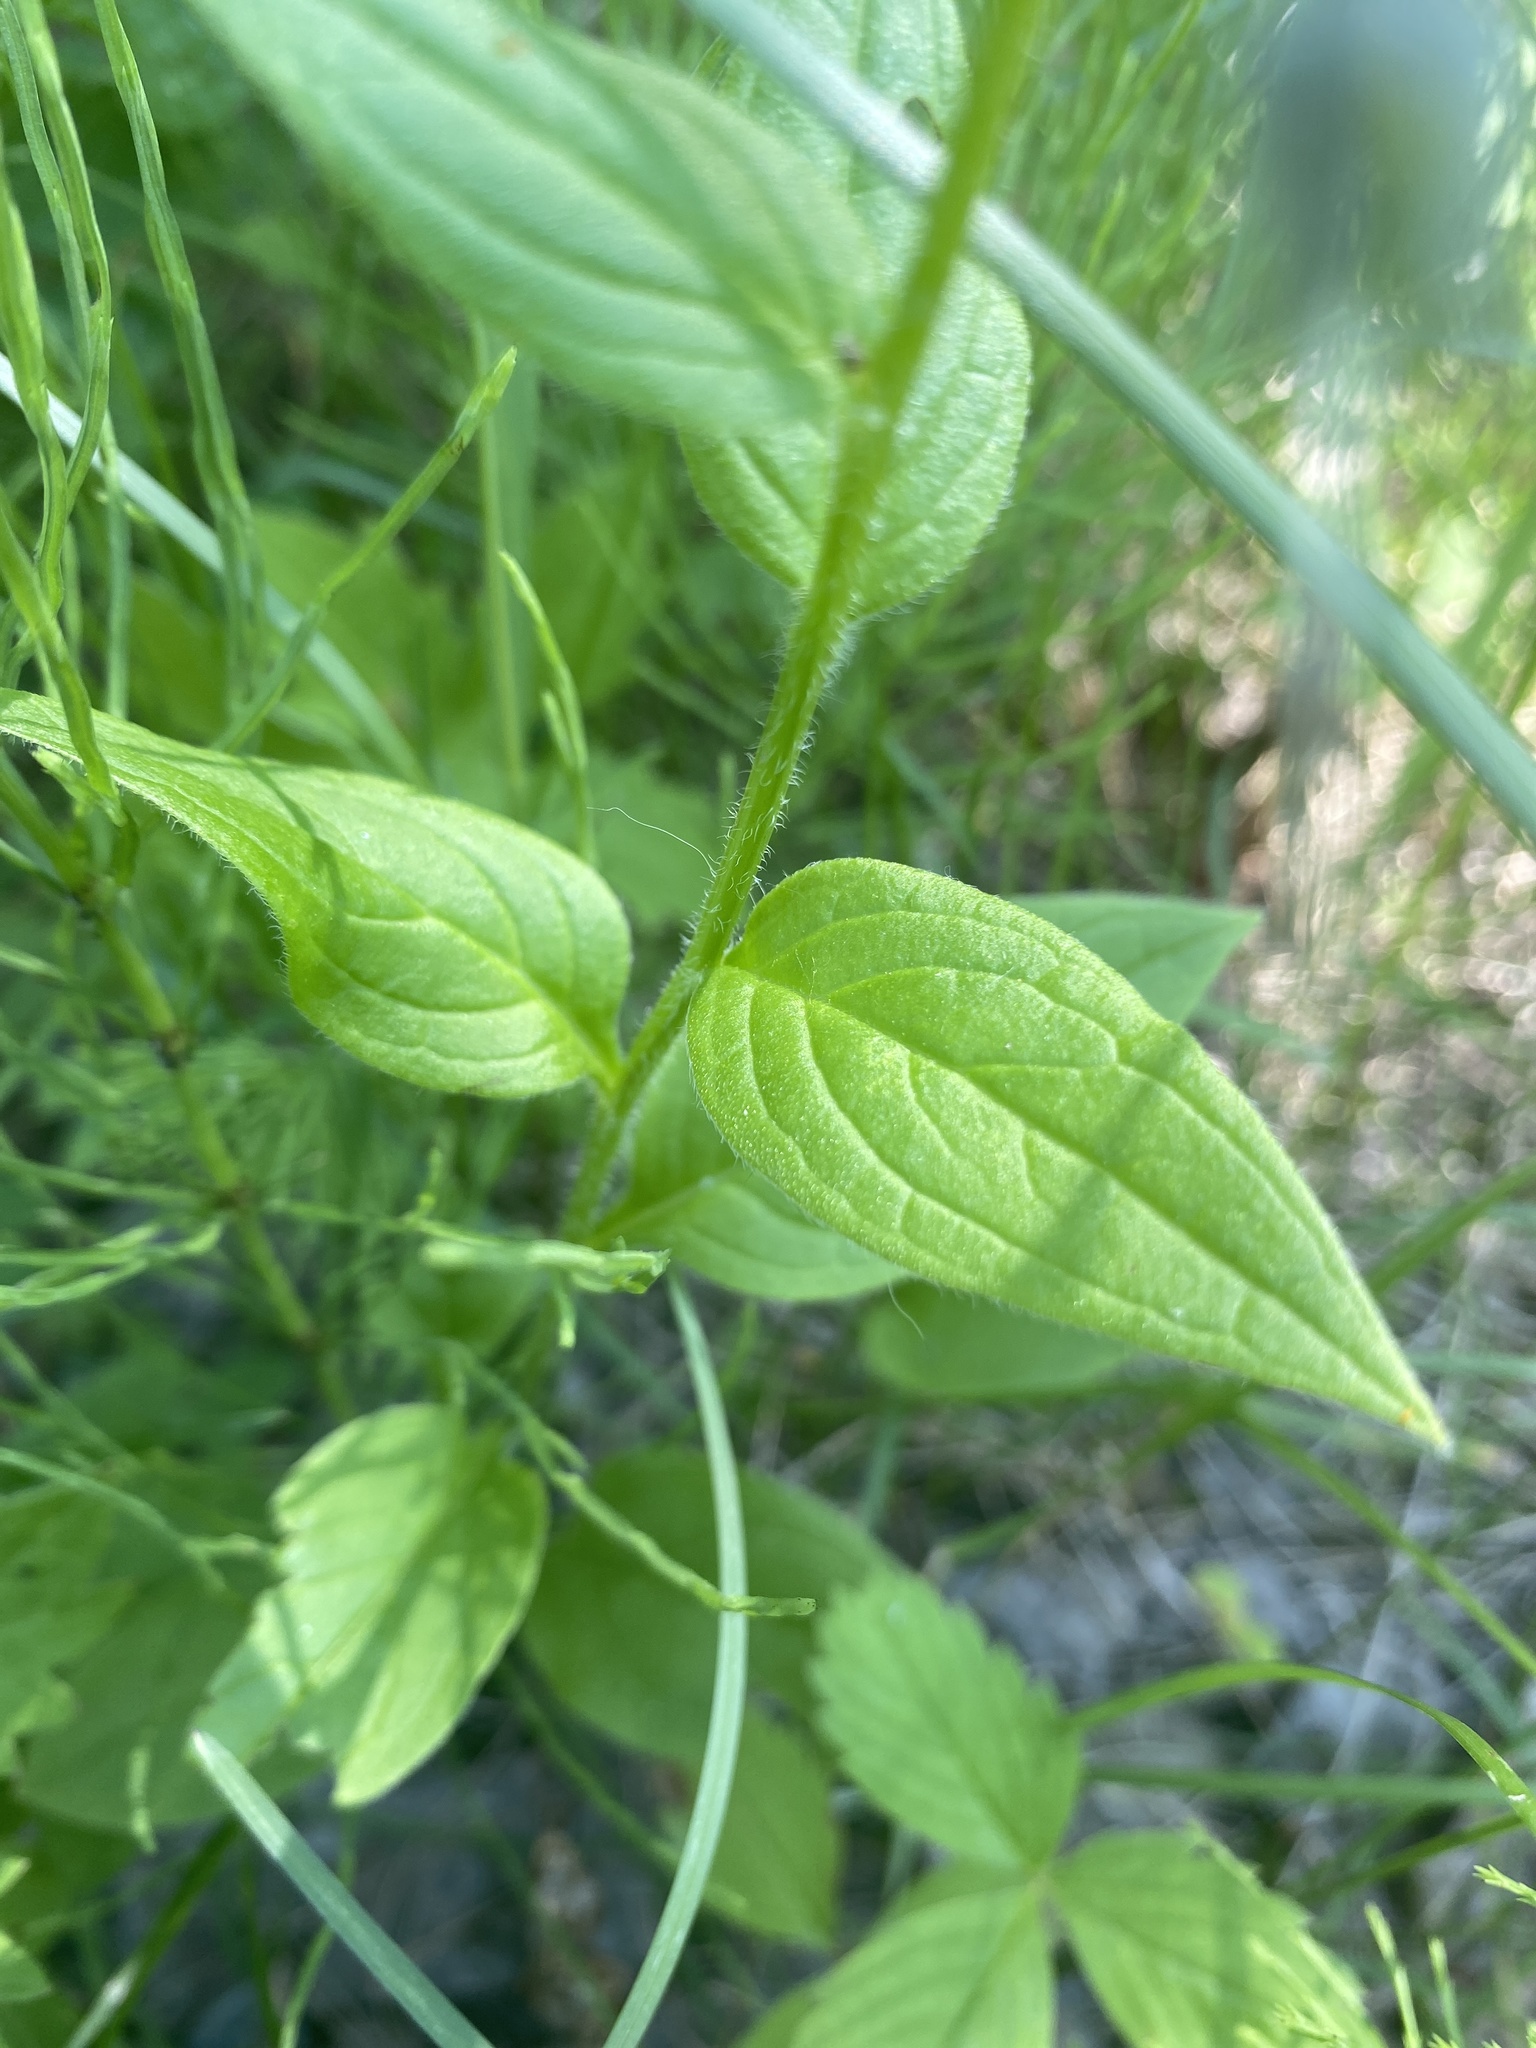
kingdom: Plantae
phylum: Tracheophyta
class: Magnoliopsida
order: Boraginales
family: Boraginaceae
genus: Mertensia
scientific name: Mertensia paniculata
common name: Panicled bluebells
